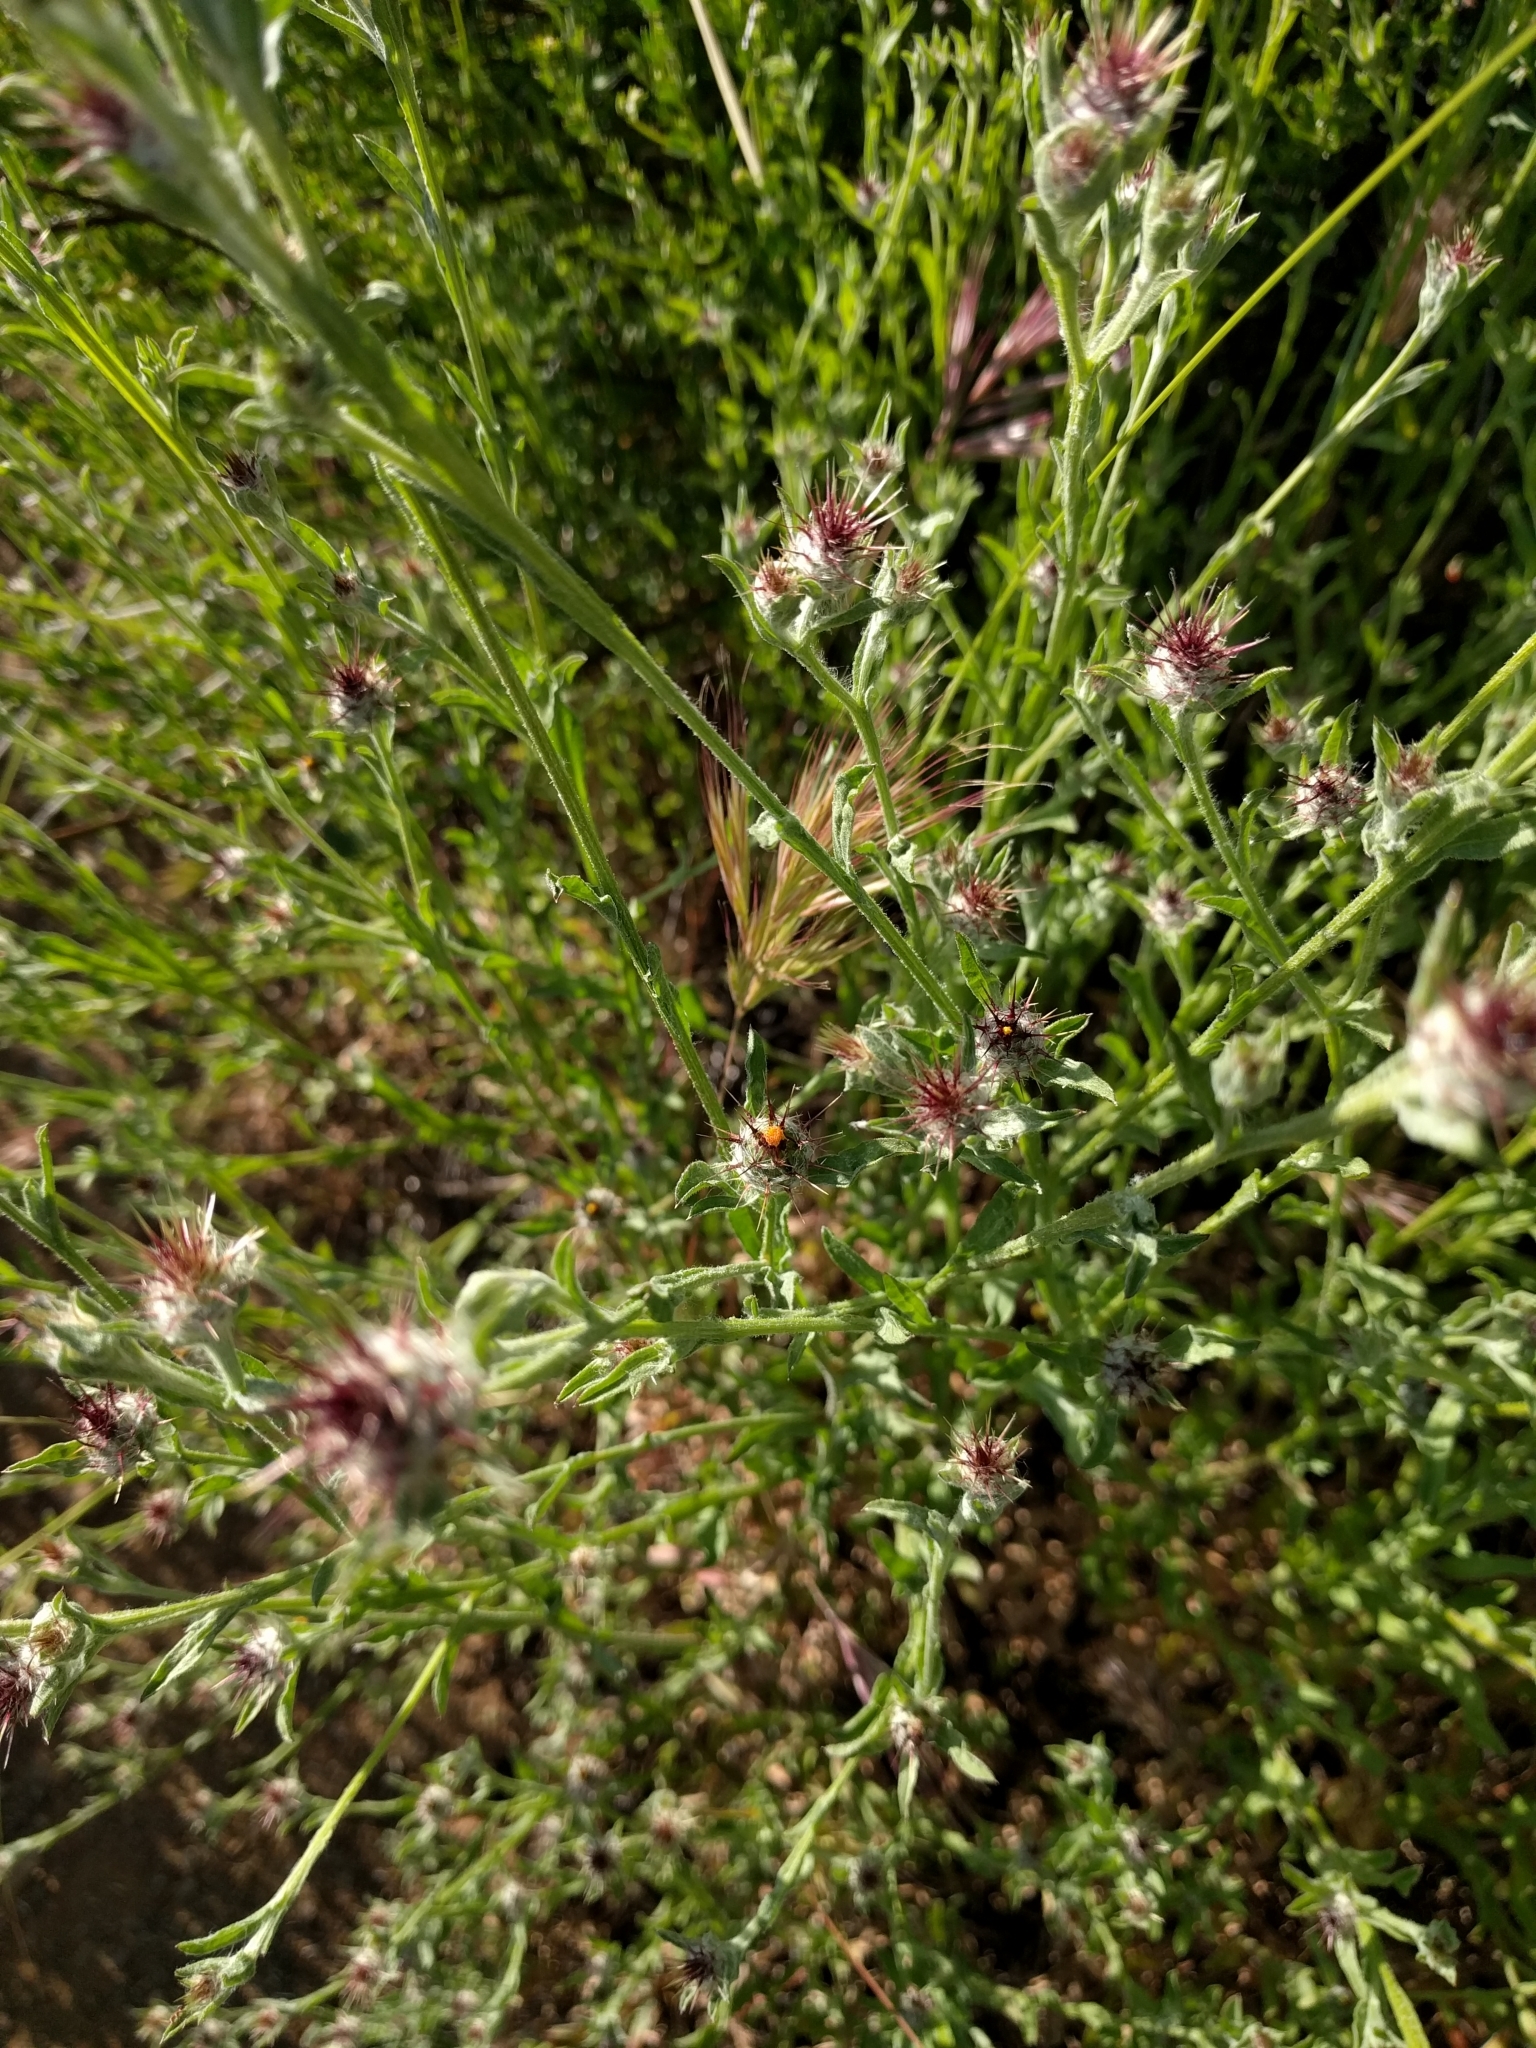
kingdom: Plantae
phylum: Tracheophyta
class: Magnoliopsida
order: Asterales
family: Asteraceae
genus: Centaurea
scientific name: Centaurea melitensis
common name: Maltese star-thistle
